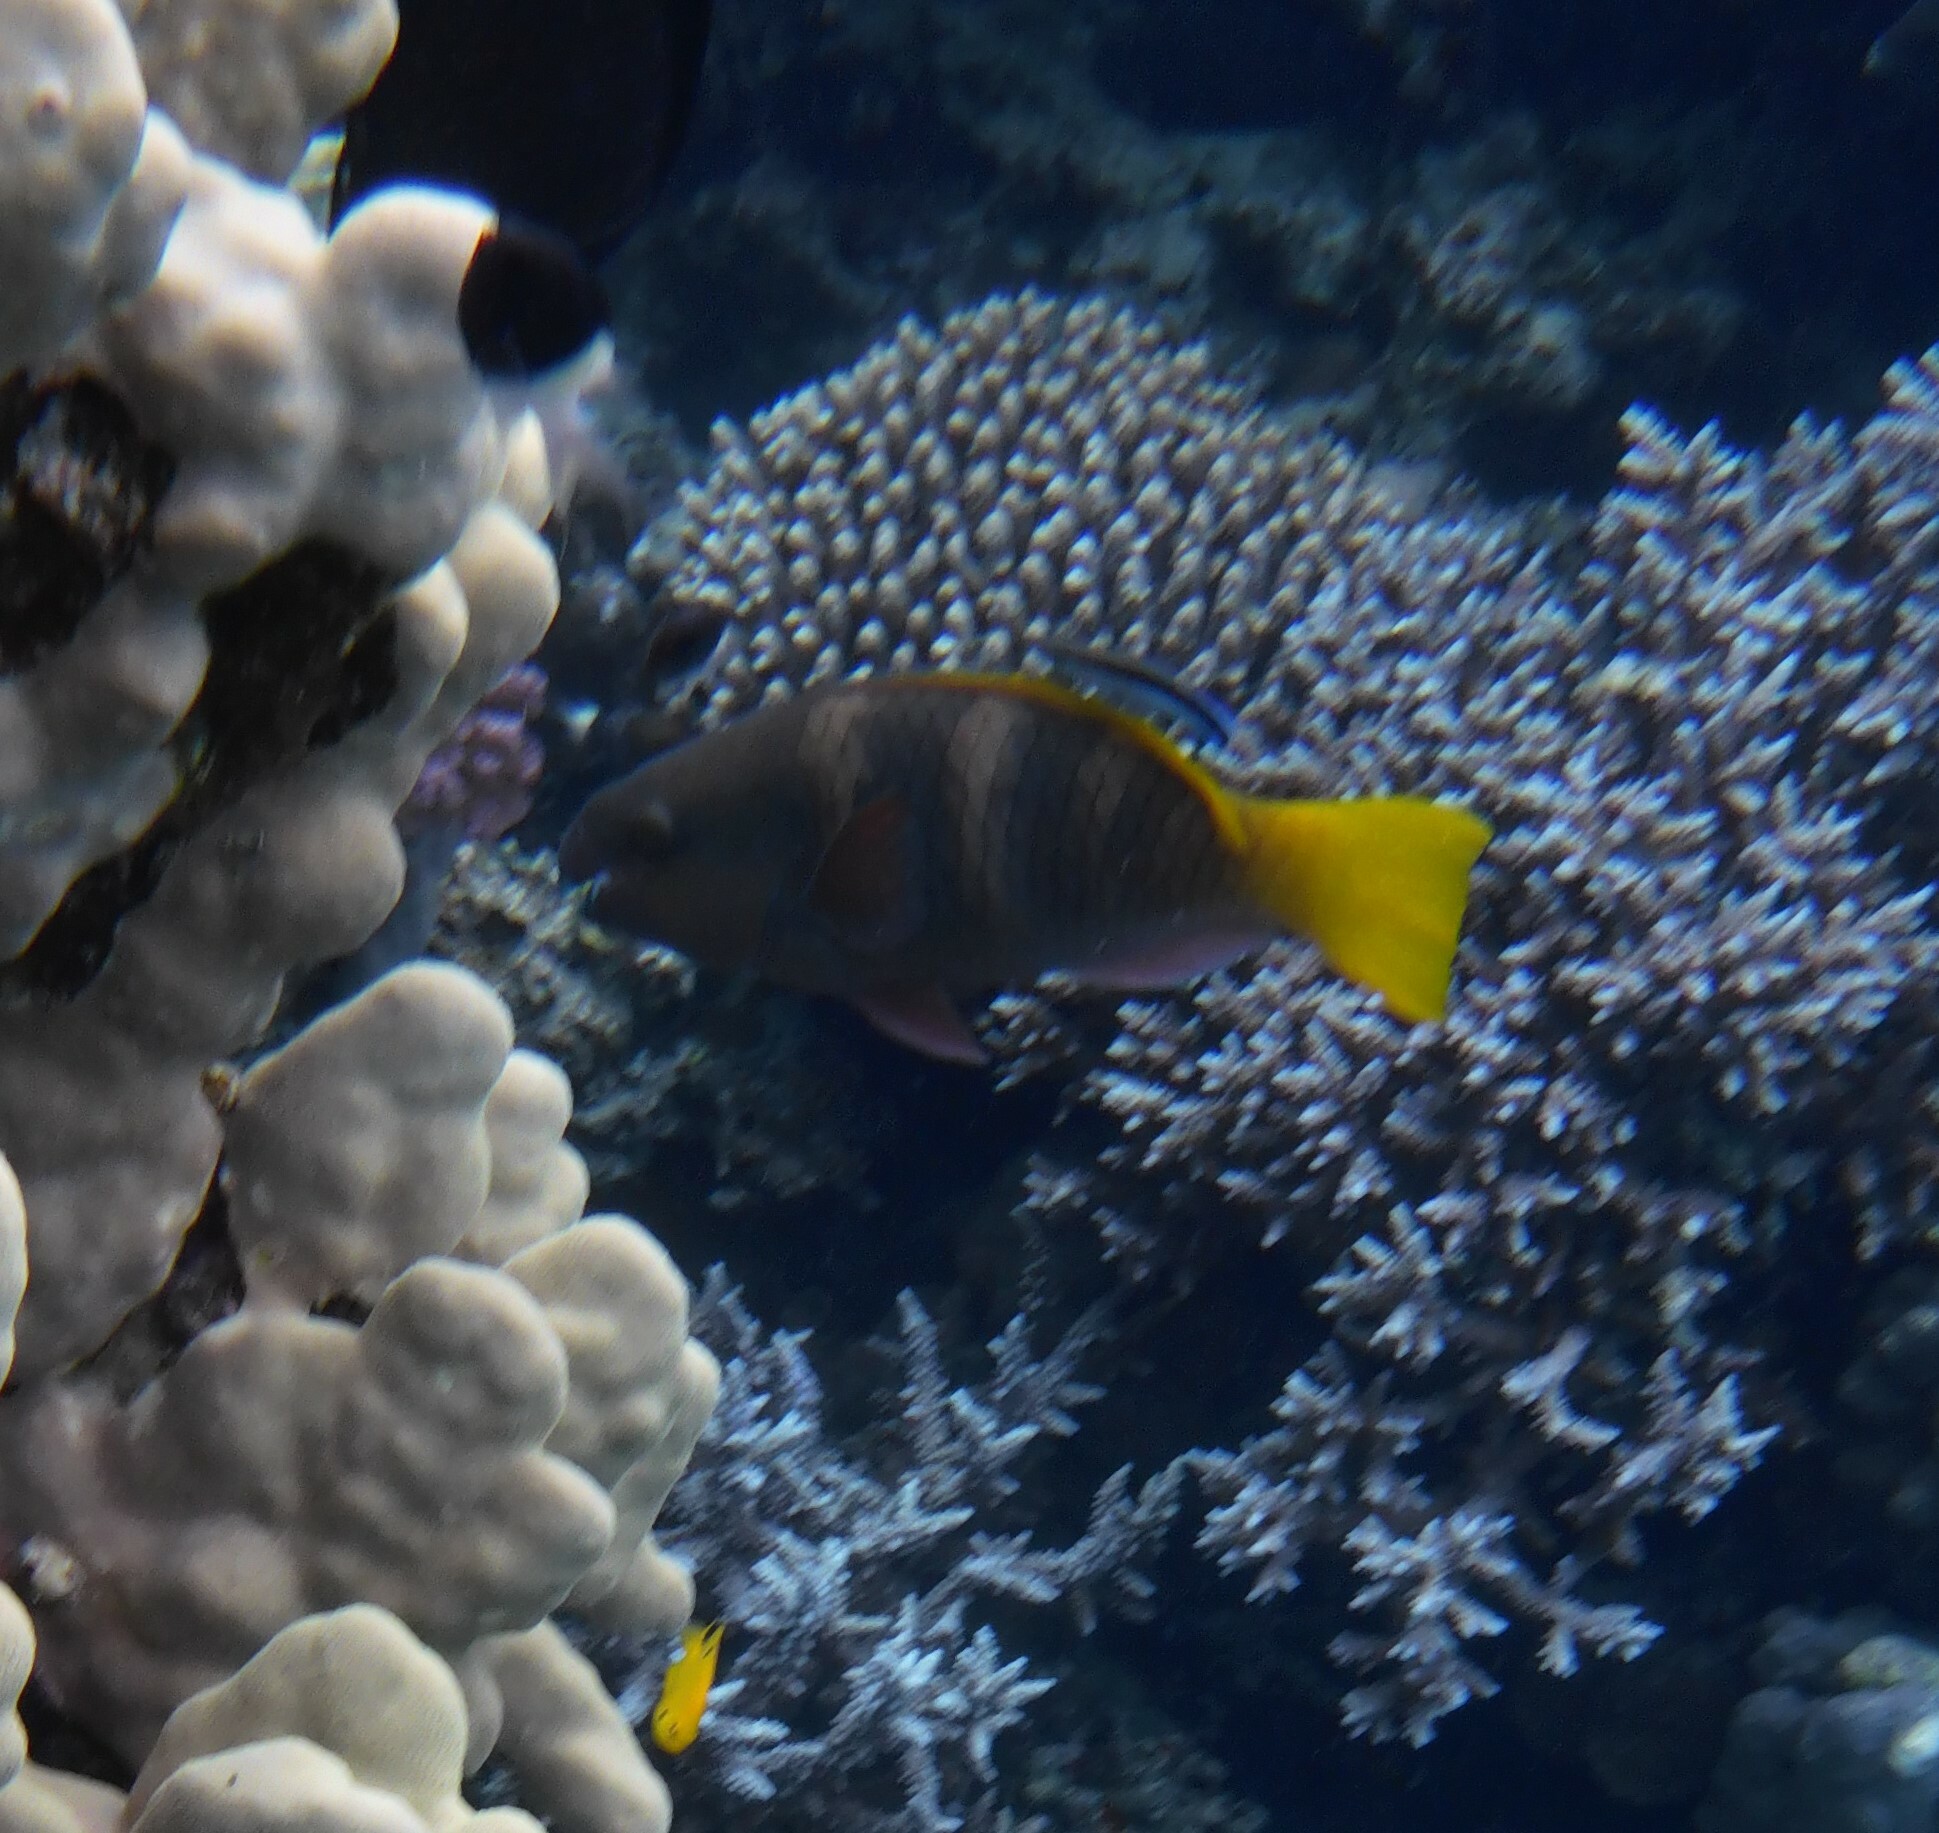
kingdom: Animalia
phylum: Chordata
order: Perciformes
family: Scaridae
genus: Scarus
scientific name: Scarus ferrugineus
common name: Rusty parrotfish
